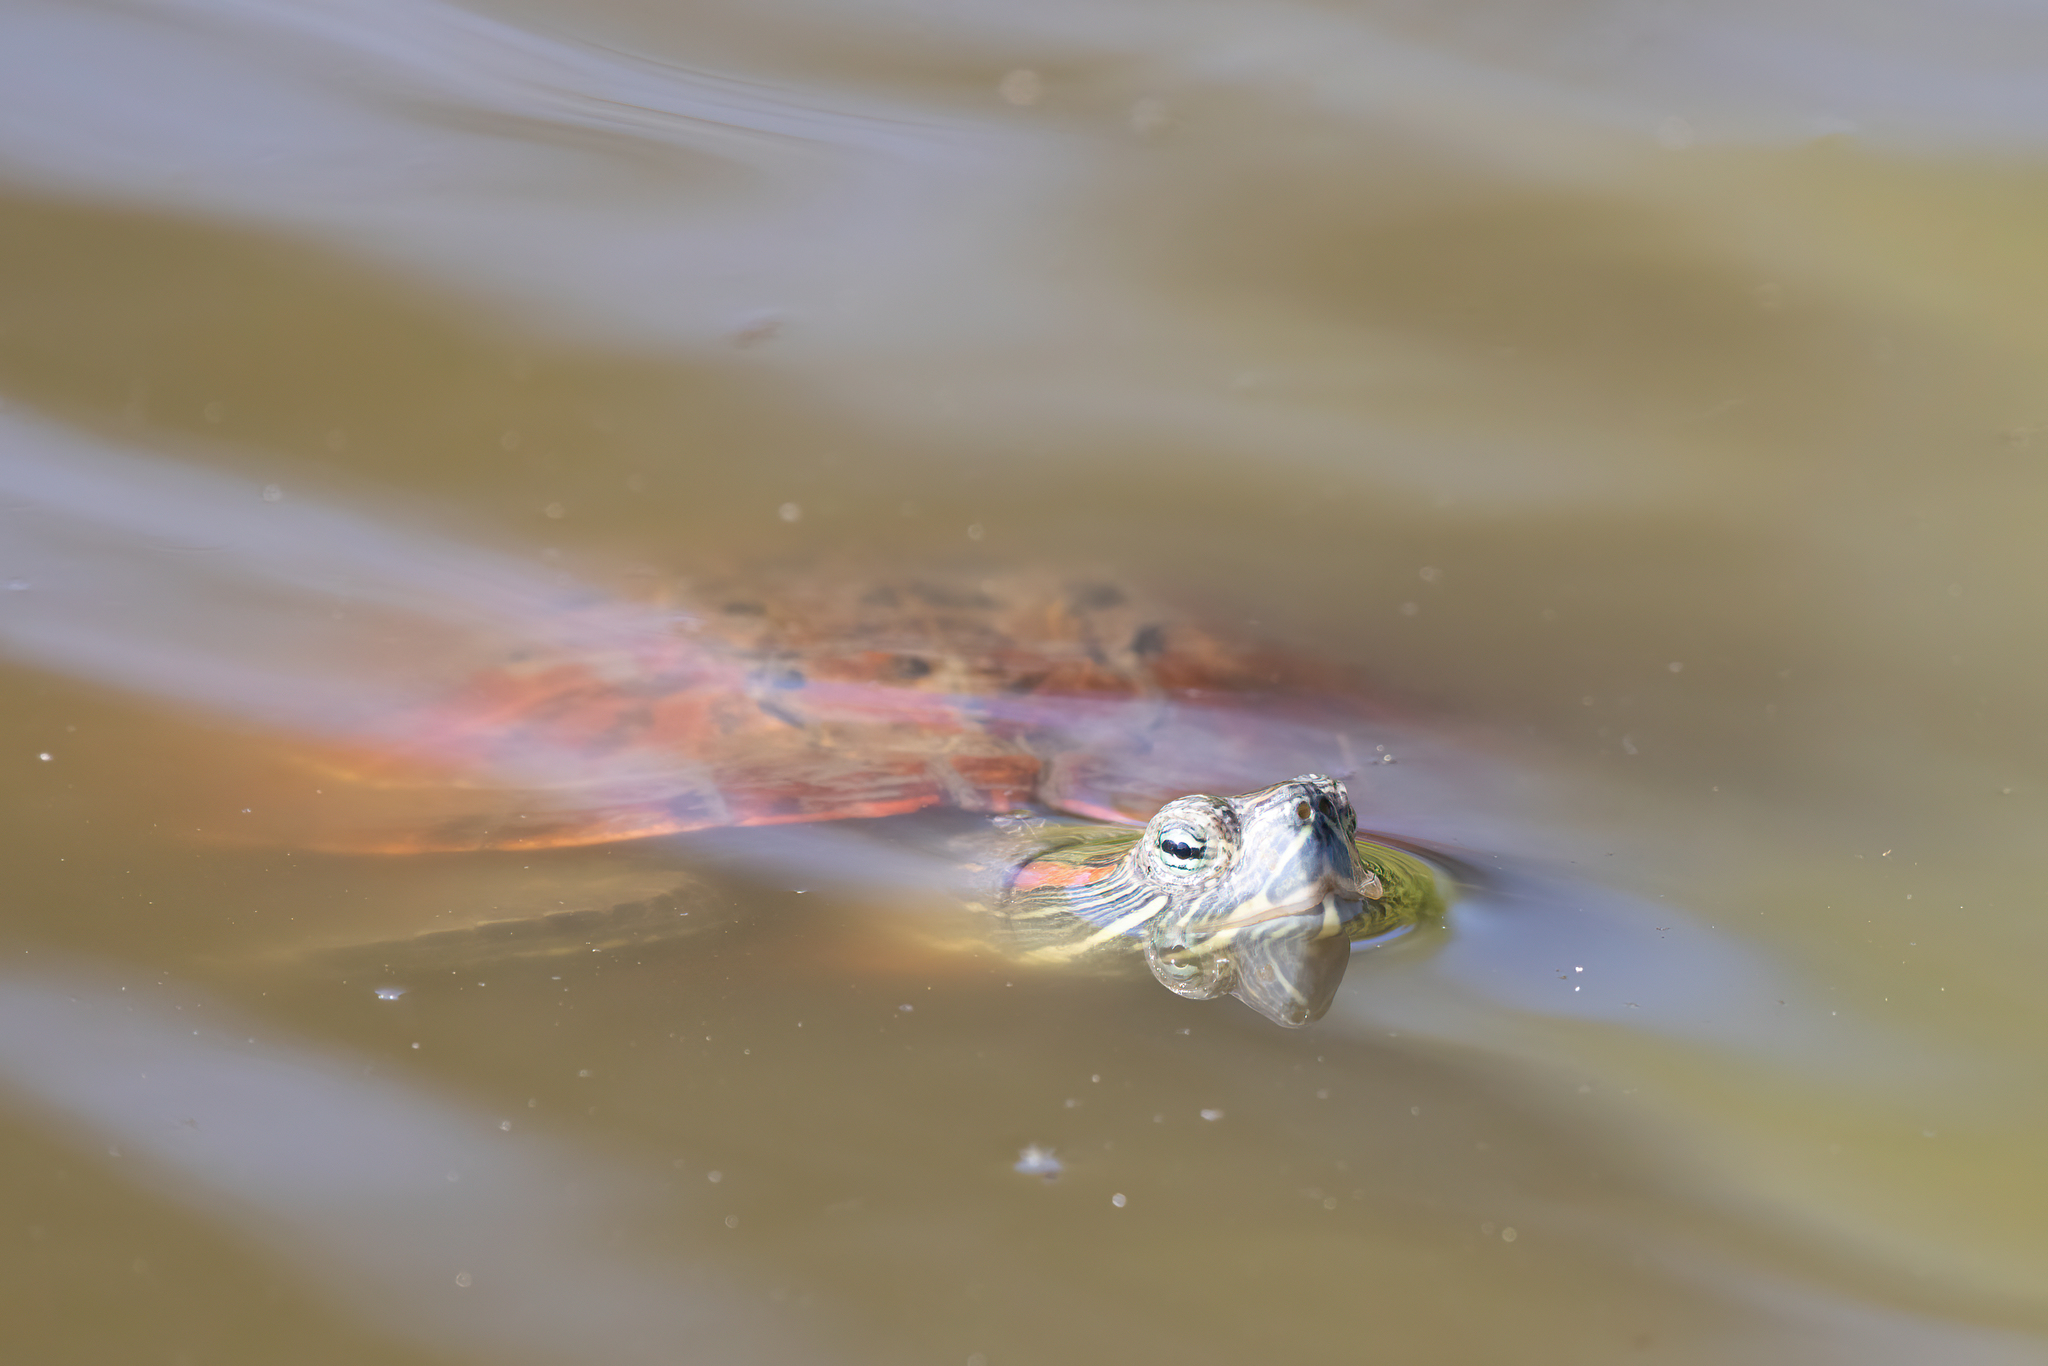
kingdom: Animalia
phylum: Chordata
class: Testudines
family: Emydidae
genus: Trachemys
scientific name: Trachemys scripta
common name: Slider
